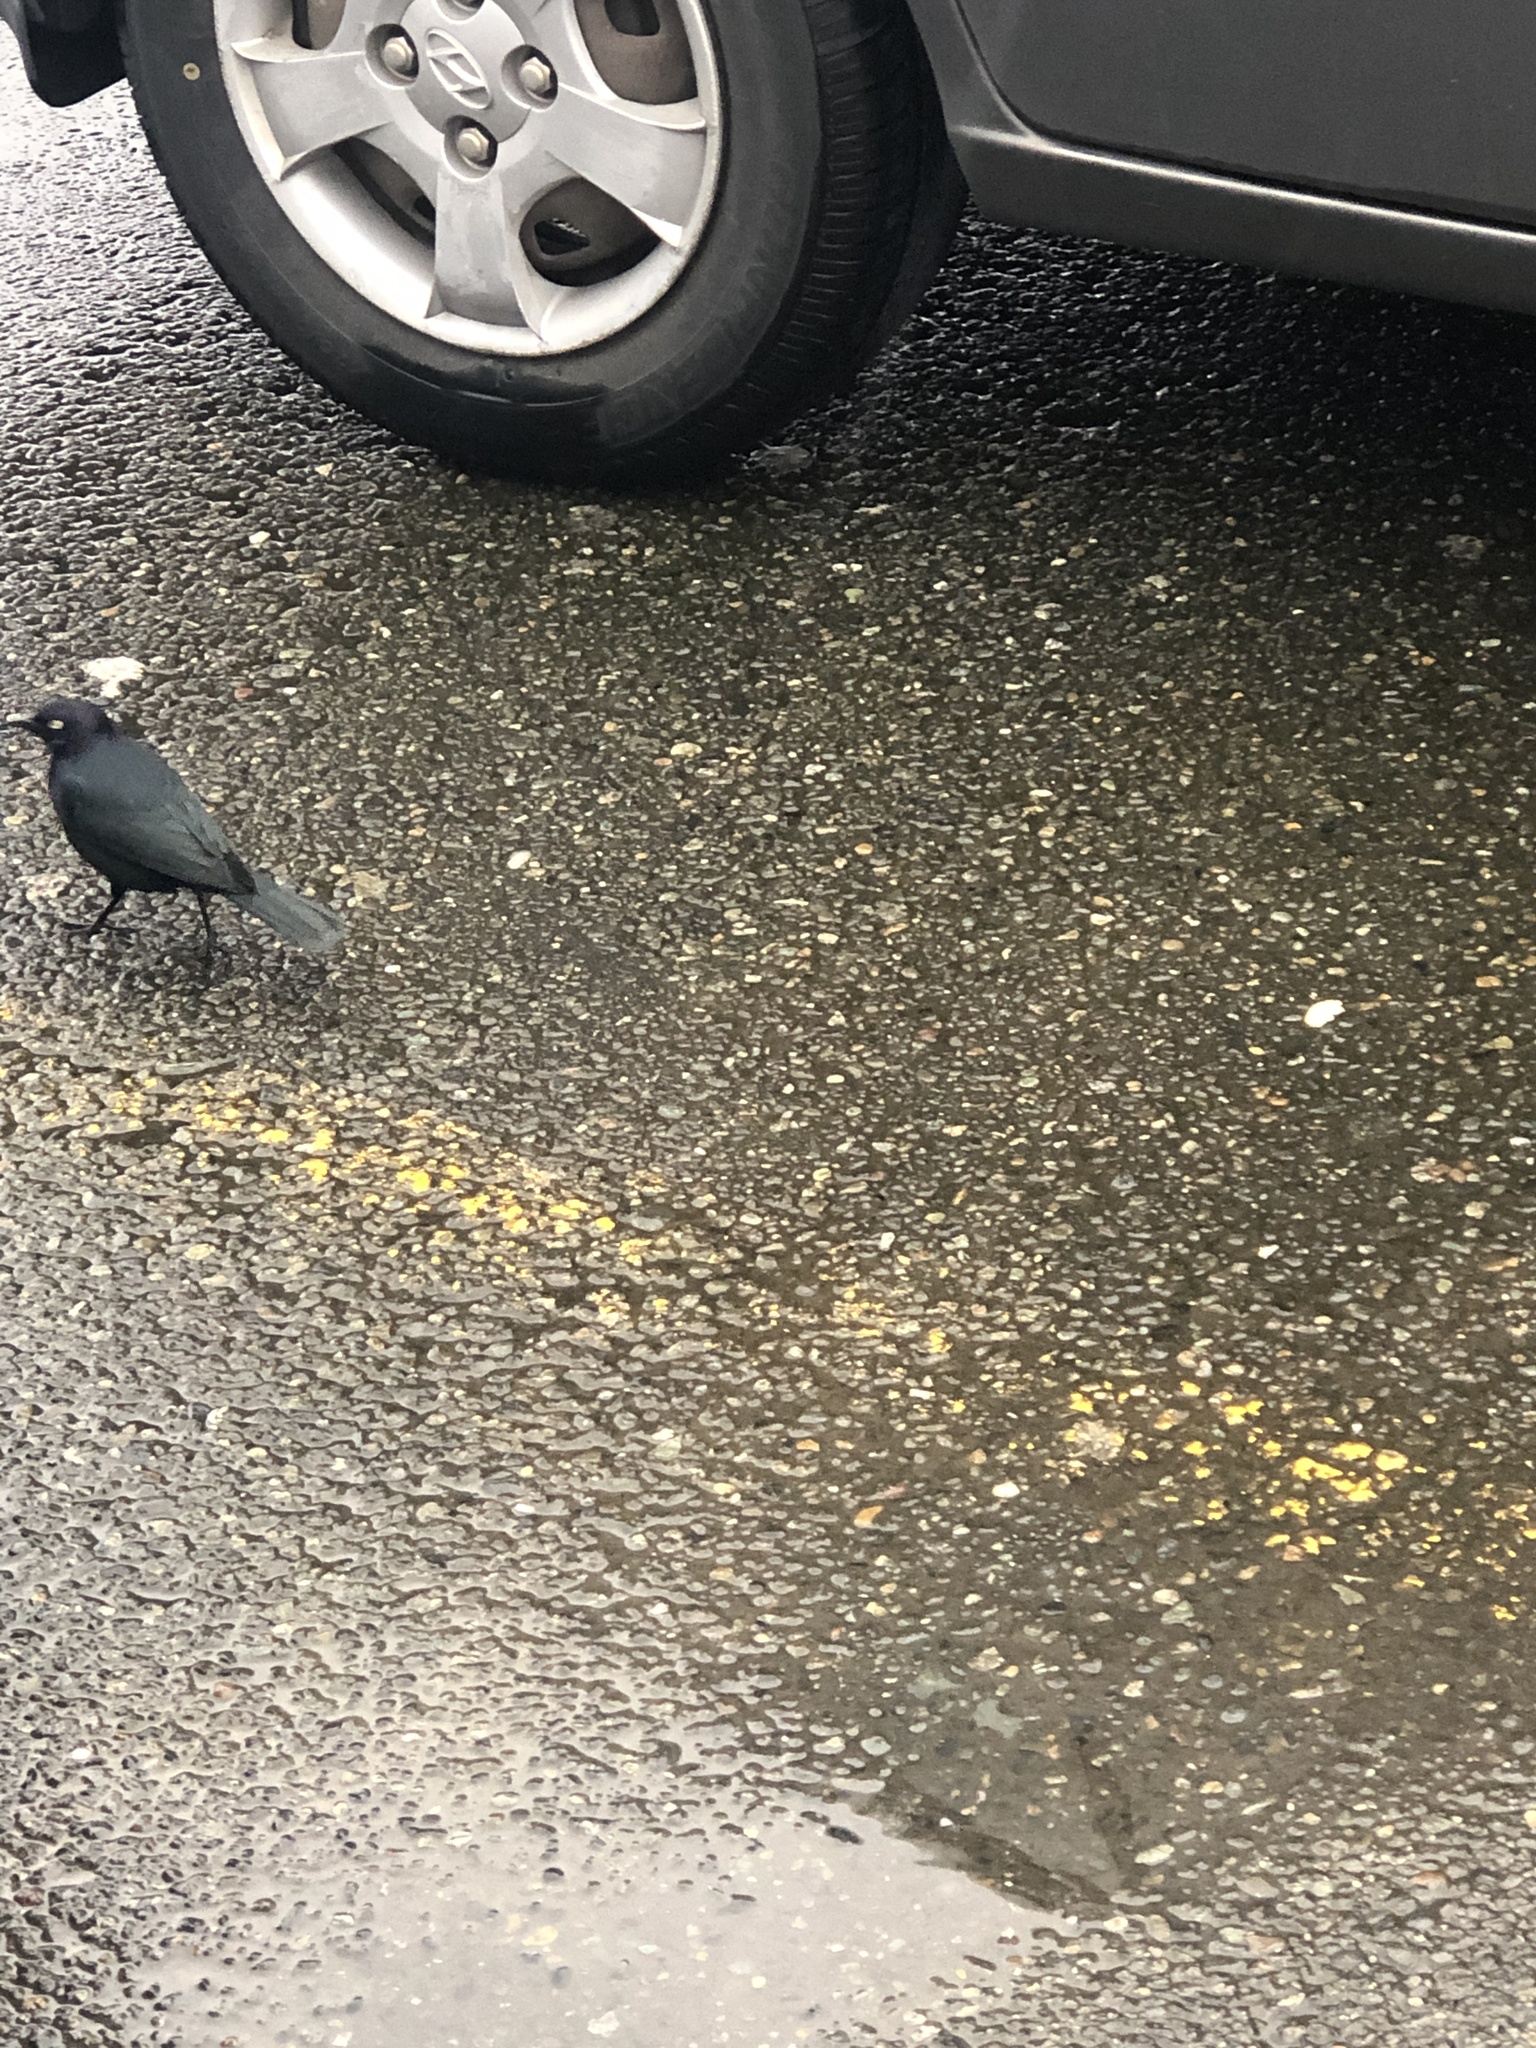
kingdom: Animalia
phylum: Chordata
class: Aves
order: Passeriformes
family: Icteridae
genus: Euphagus
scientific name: Euphagus cyanocephalus
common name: Brewer's blackbird
